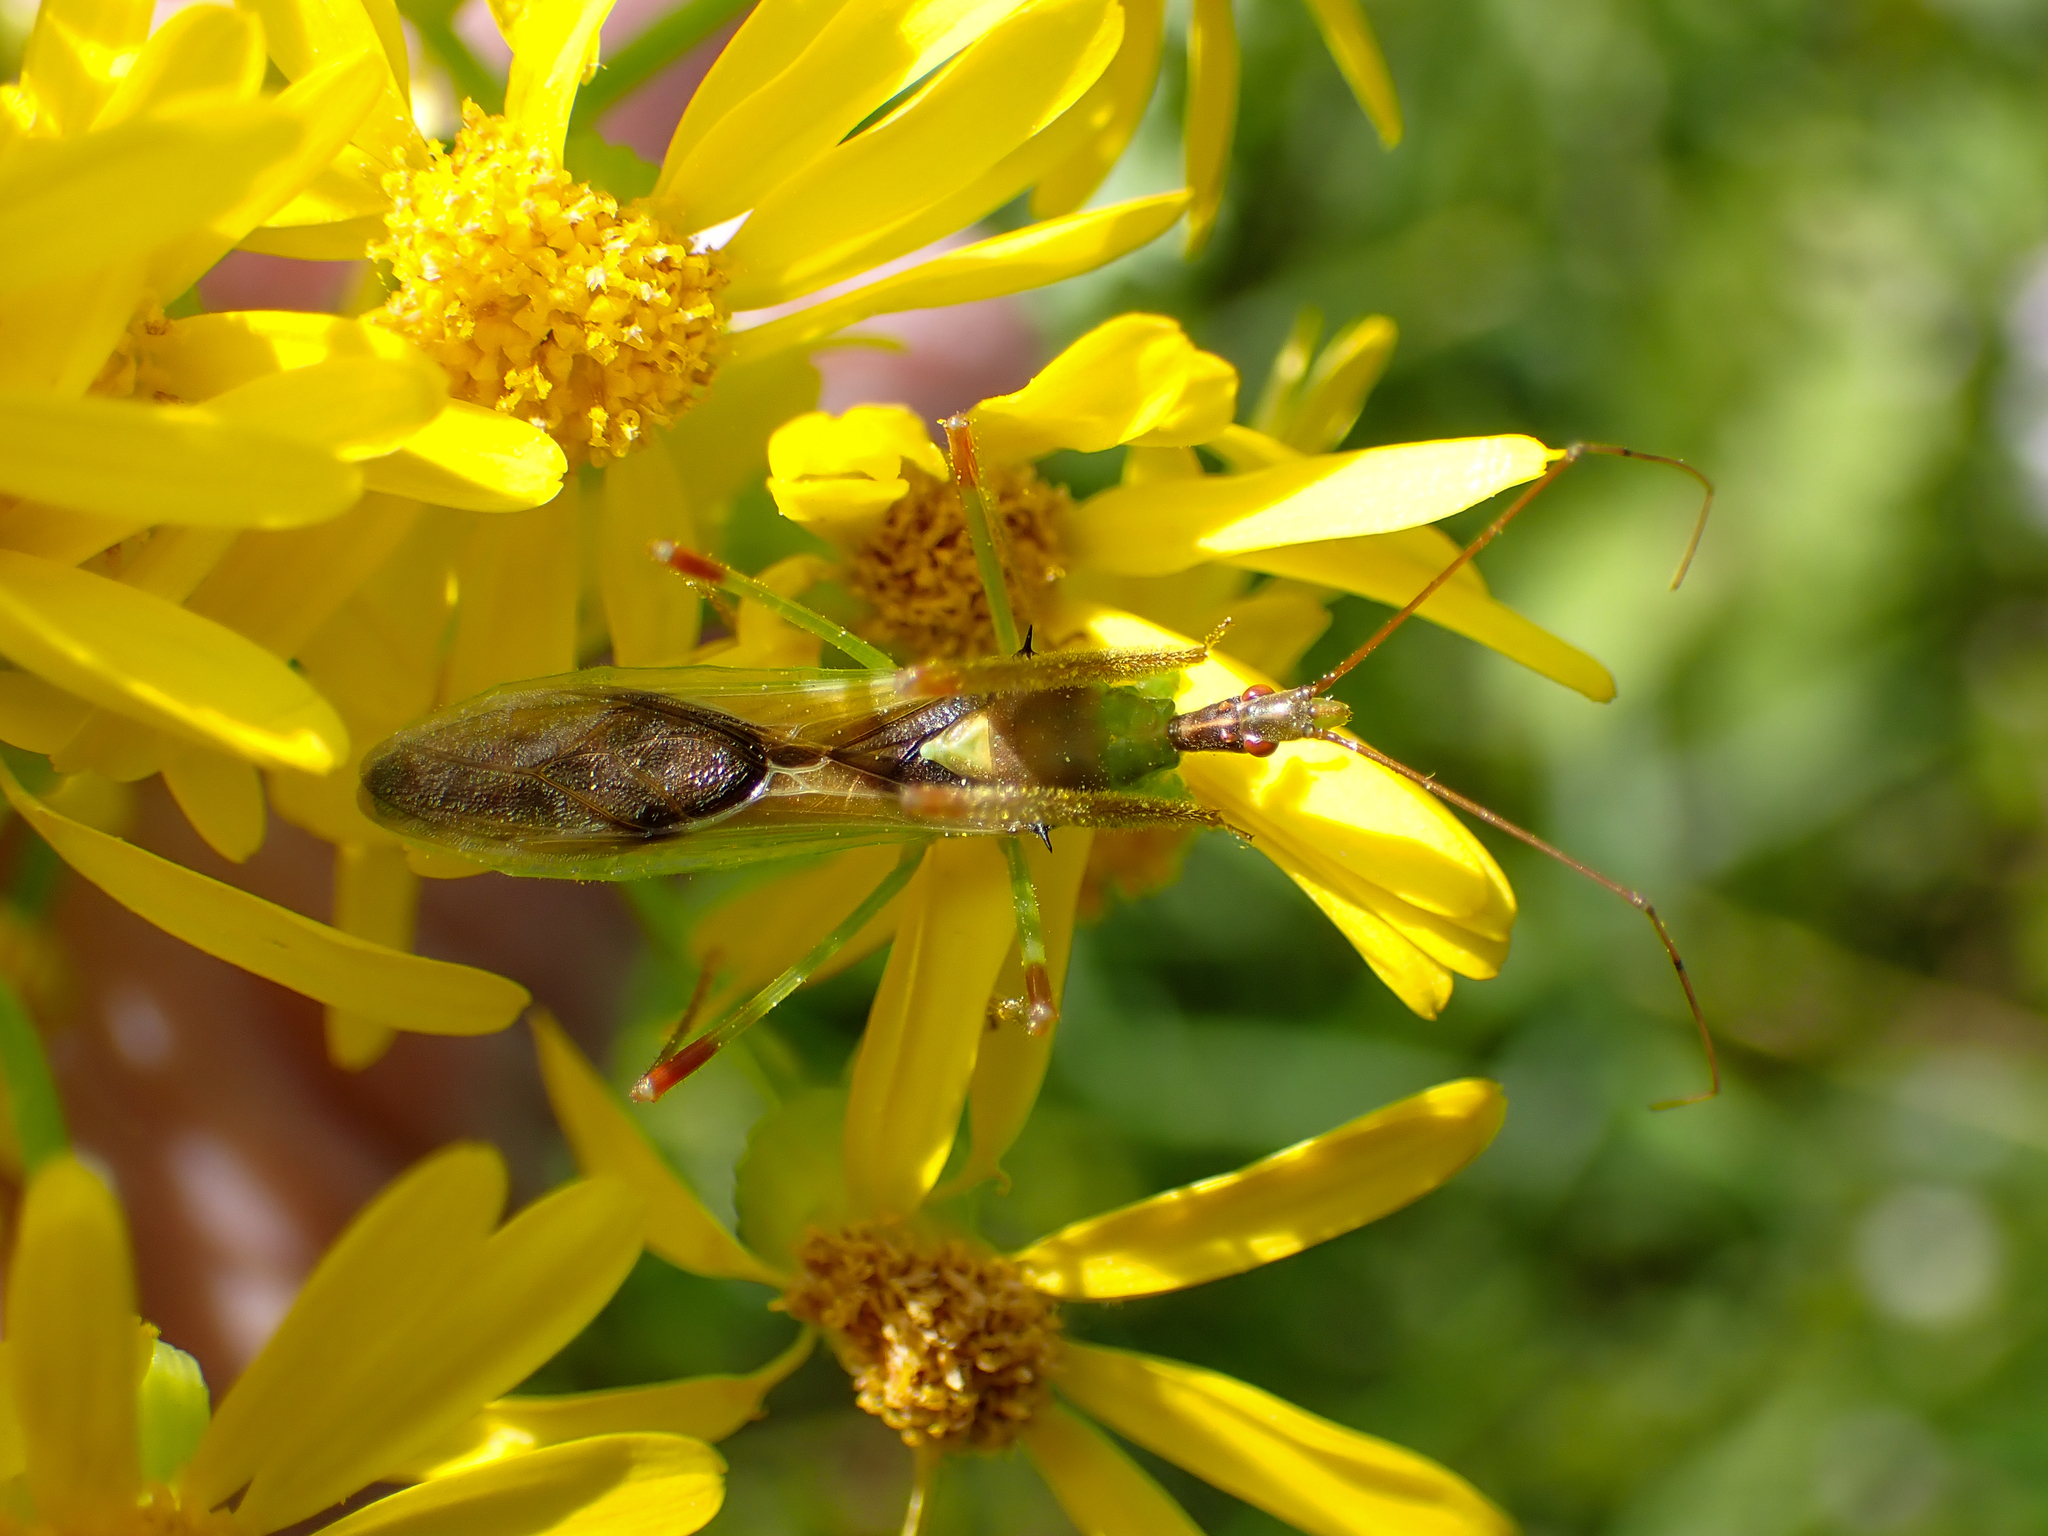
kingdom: Animalia
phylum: Arthropoda
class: Insecta
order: Hemiptera
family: Reduviidae
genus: Zelus
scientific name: Zelus luridus
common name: Pale green assassin bug
